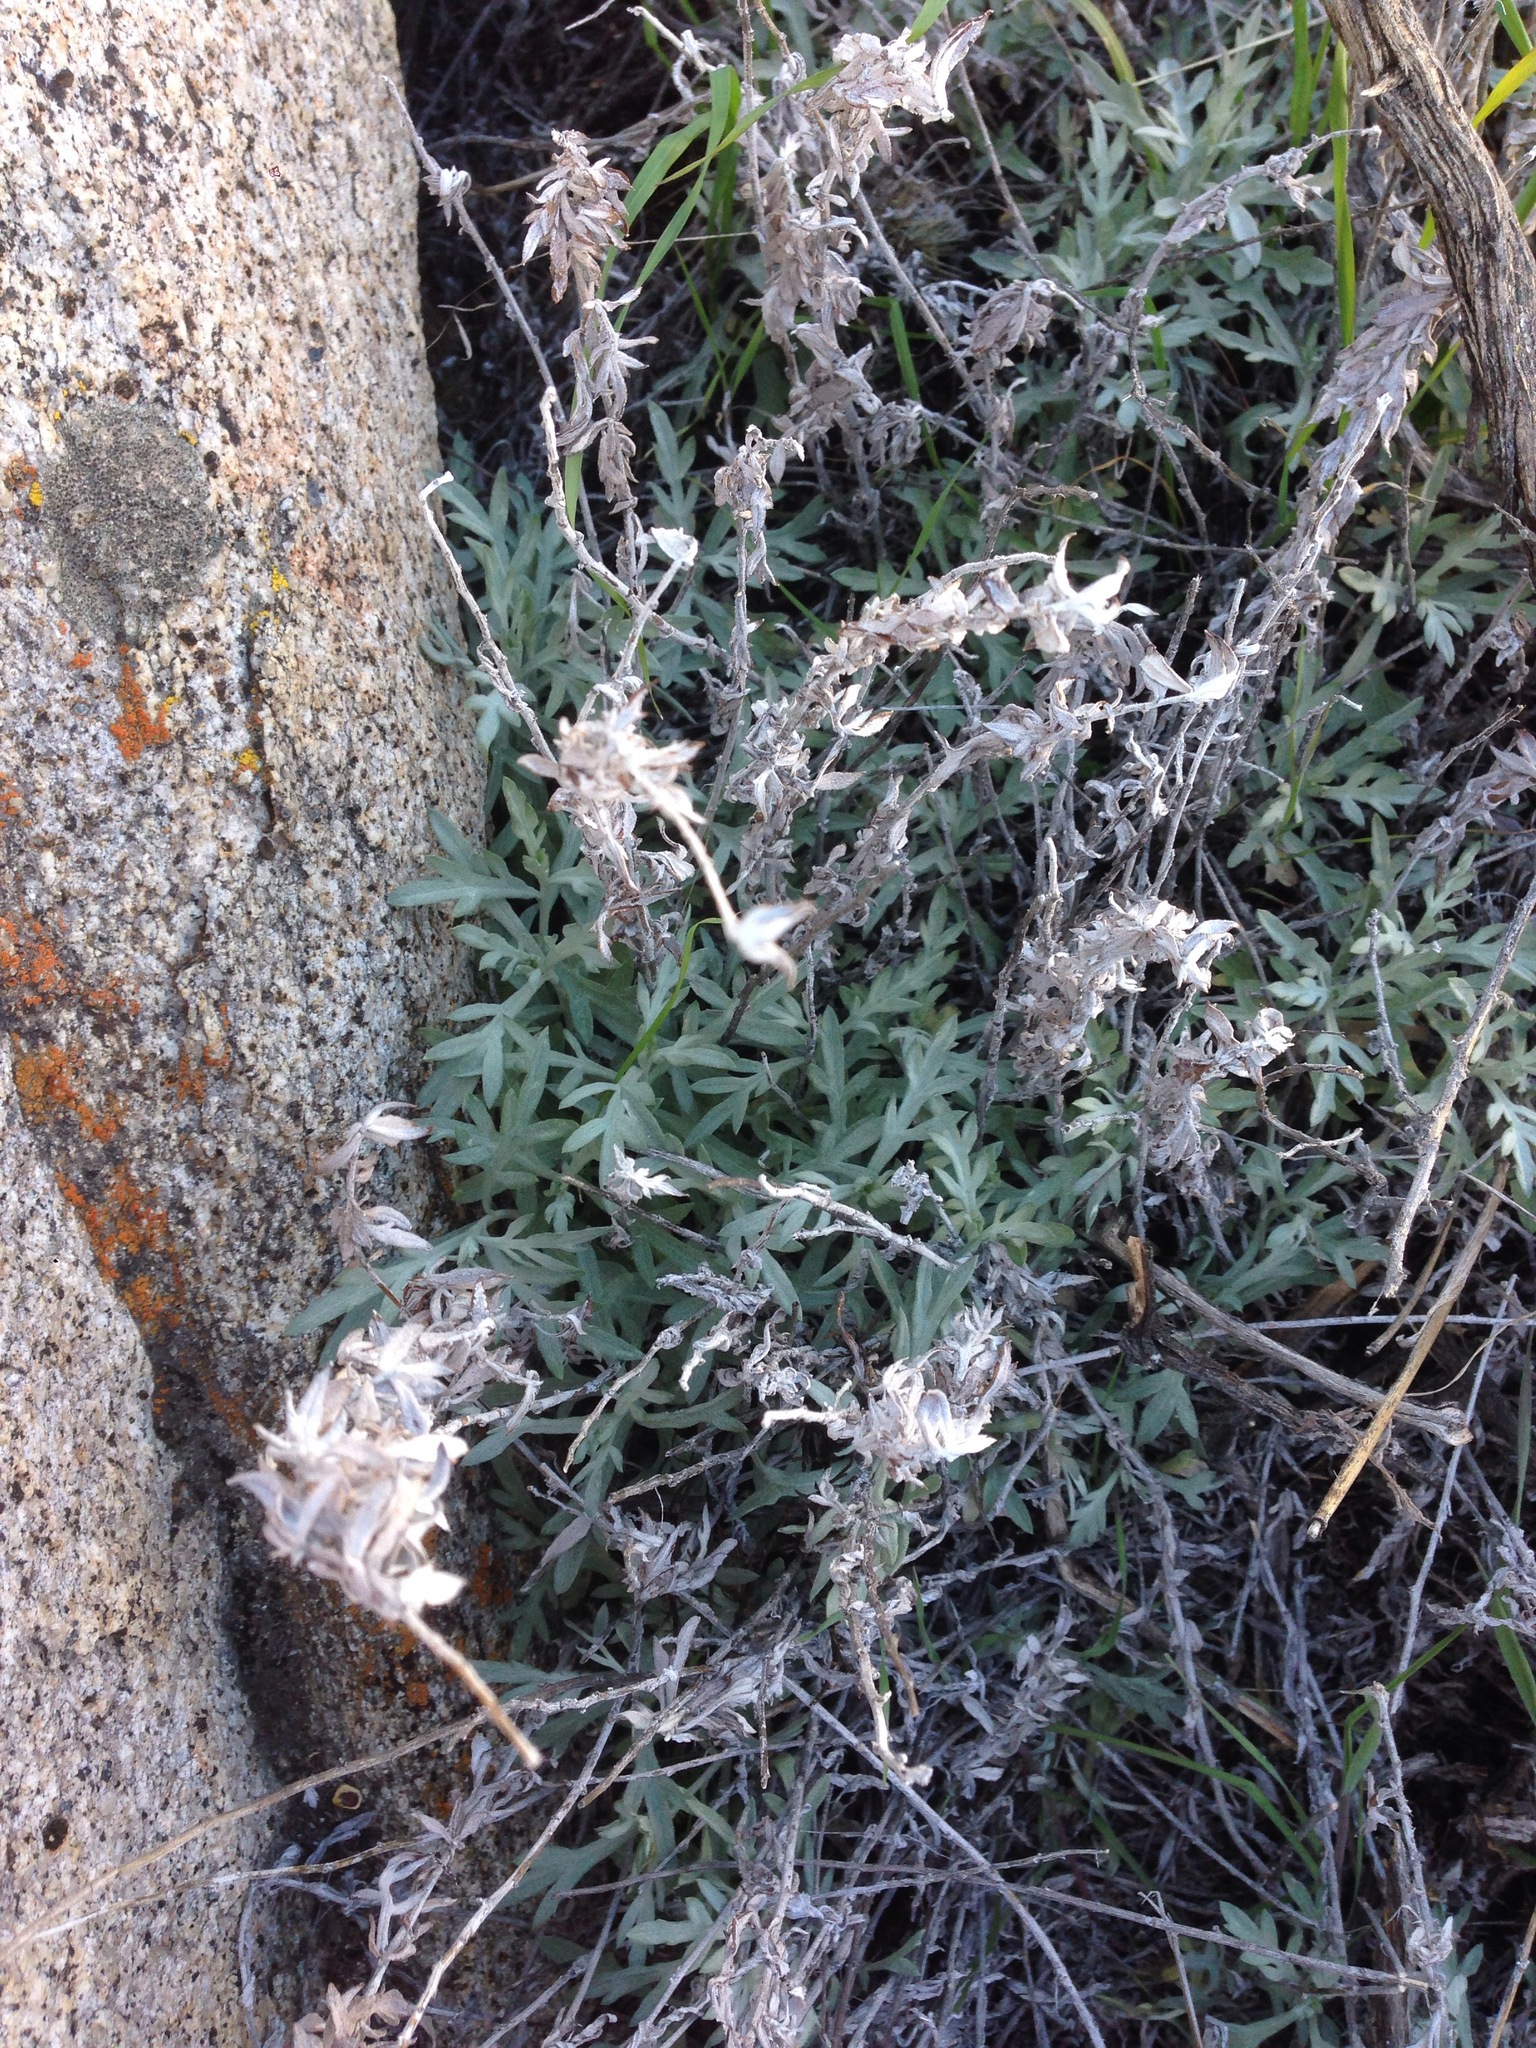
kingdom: Plantae
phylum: Tracheophyta
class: Magnoliopsida
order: Asterales
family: Asteraceae
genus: Artemisia
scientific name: Artemisia ludoviciana
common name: Western mugwort
